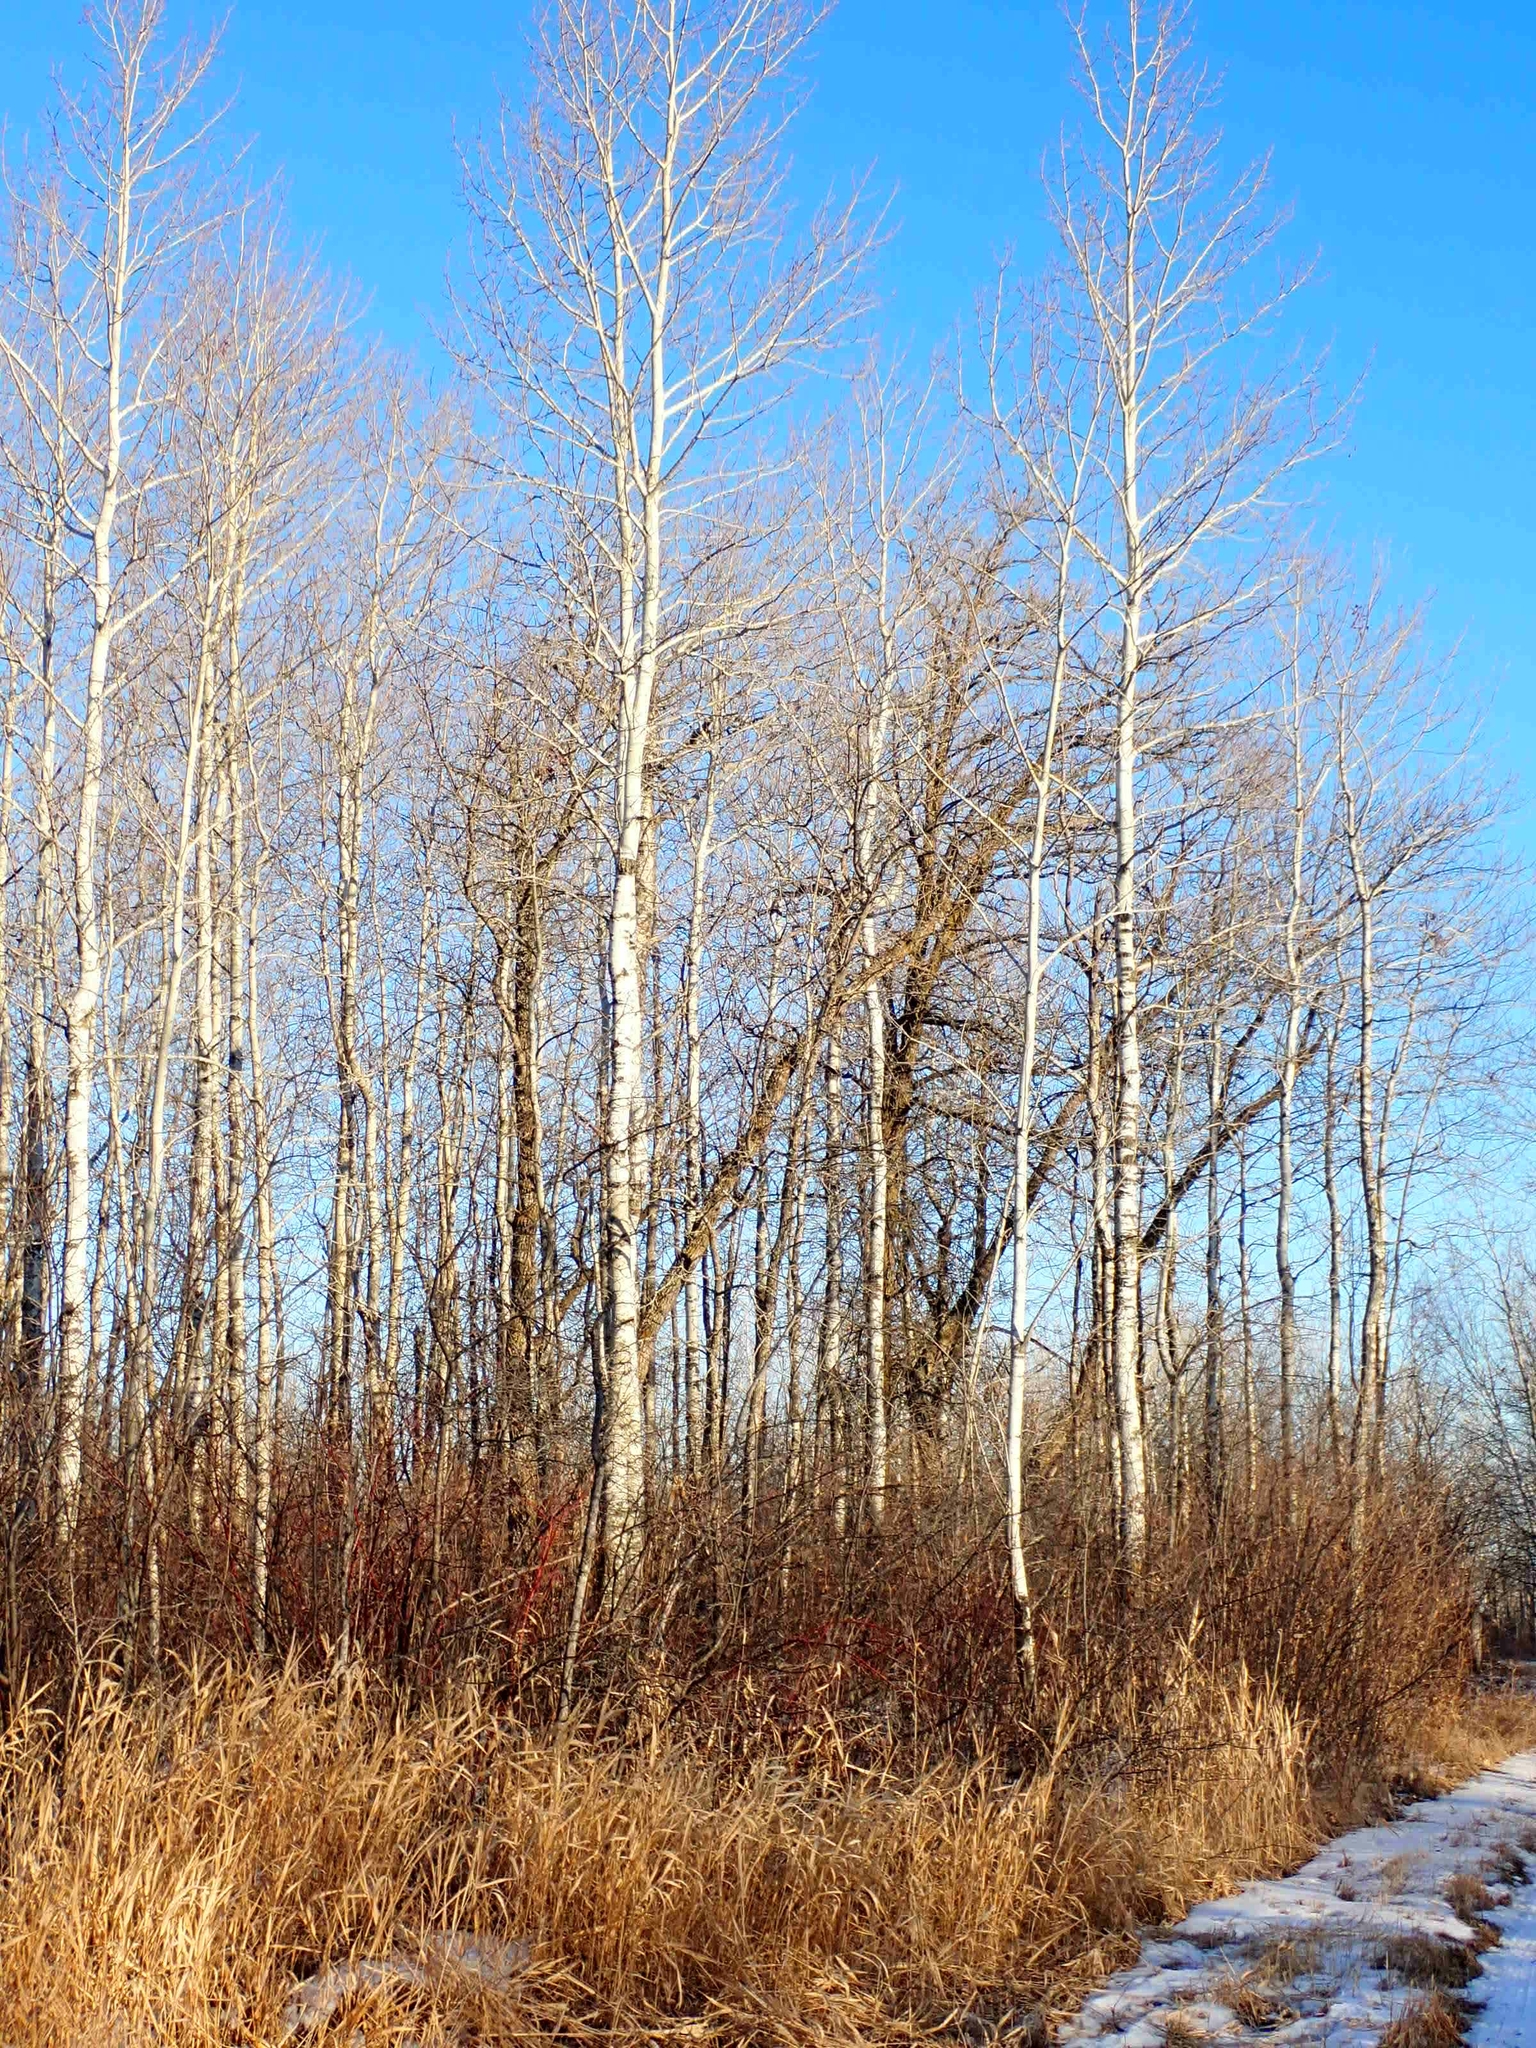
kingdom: Plantae
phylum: Tracheophyta
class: Magnoliopsida
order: Malpighiales
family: Salicaceae
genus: Populus
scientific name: Populus tremuloides
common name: Quaking aspen
